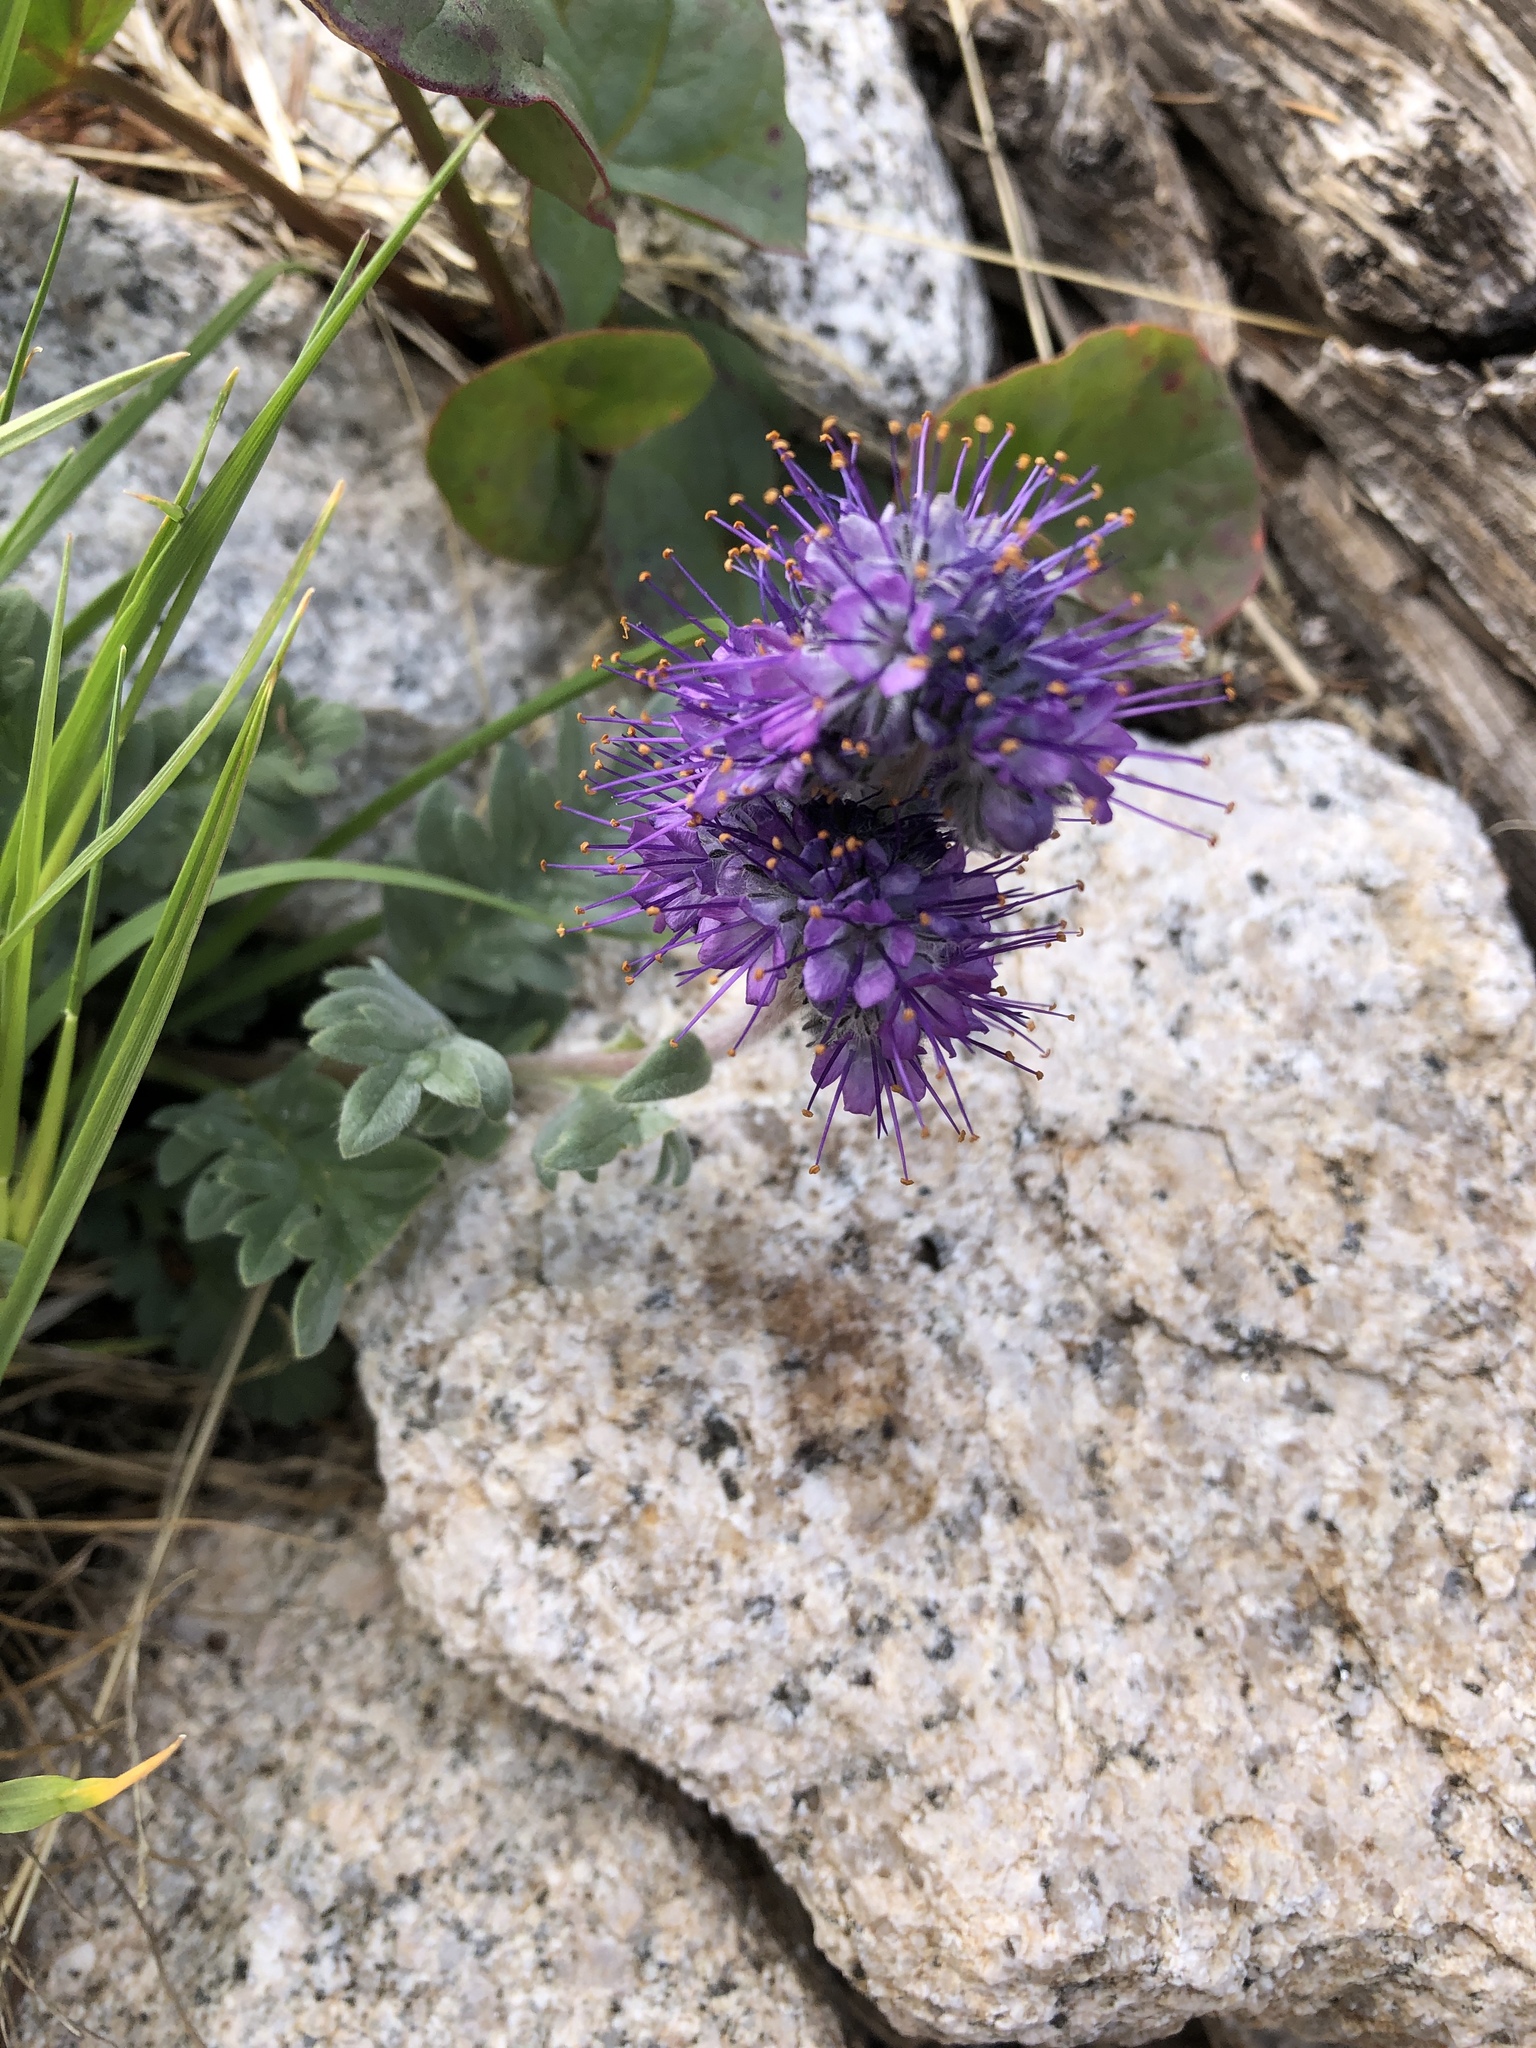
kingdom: Plantae
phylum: Tracheophyta
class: Magnoliopsida
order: Boraginales
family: Hydrophyllaceae
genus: Phacelia
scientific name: Phacelia sericea
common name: Silky phacelia
